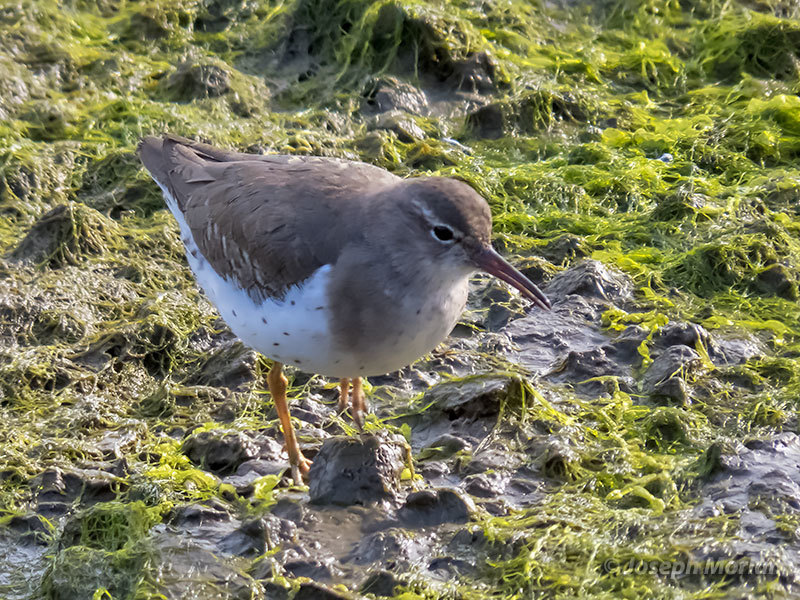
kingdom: Animalia
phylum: Chordata
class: Aves
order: Charadriiformes
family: Scolopacidae
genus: Actitis
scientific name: Actitis macularius
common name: Spotted sandpiper
